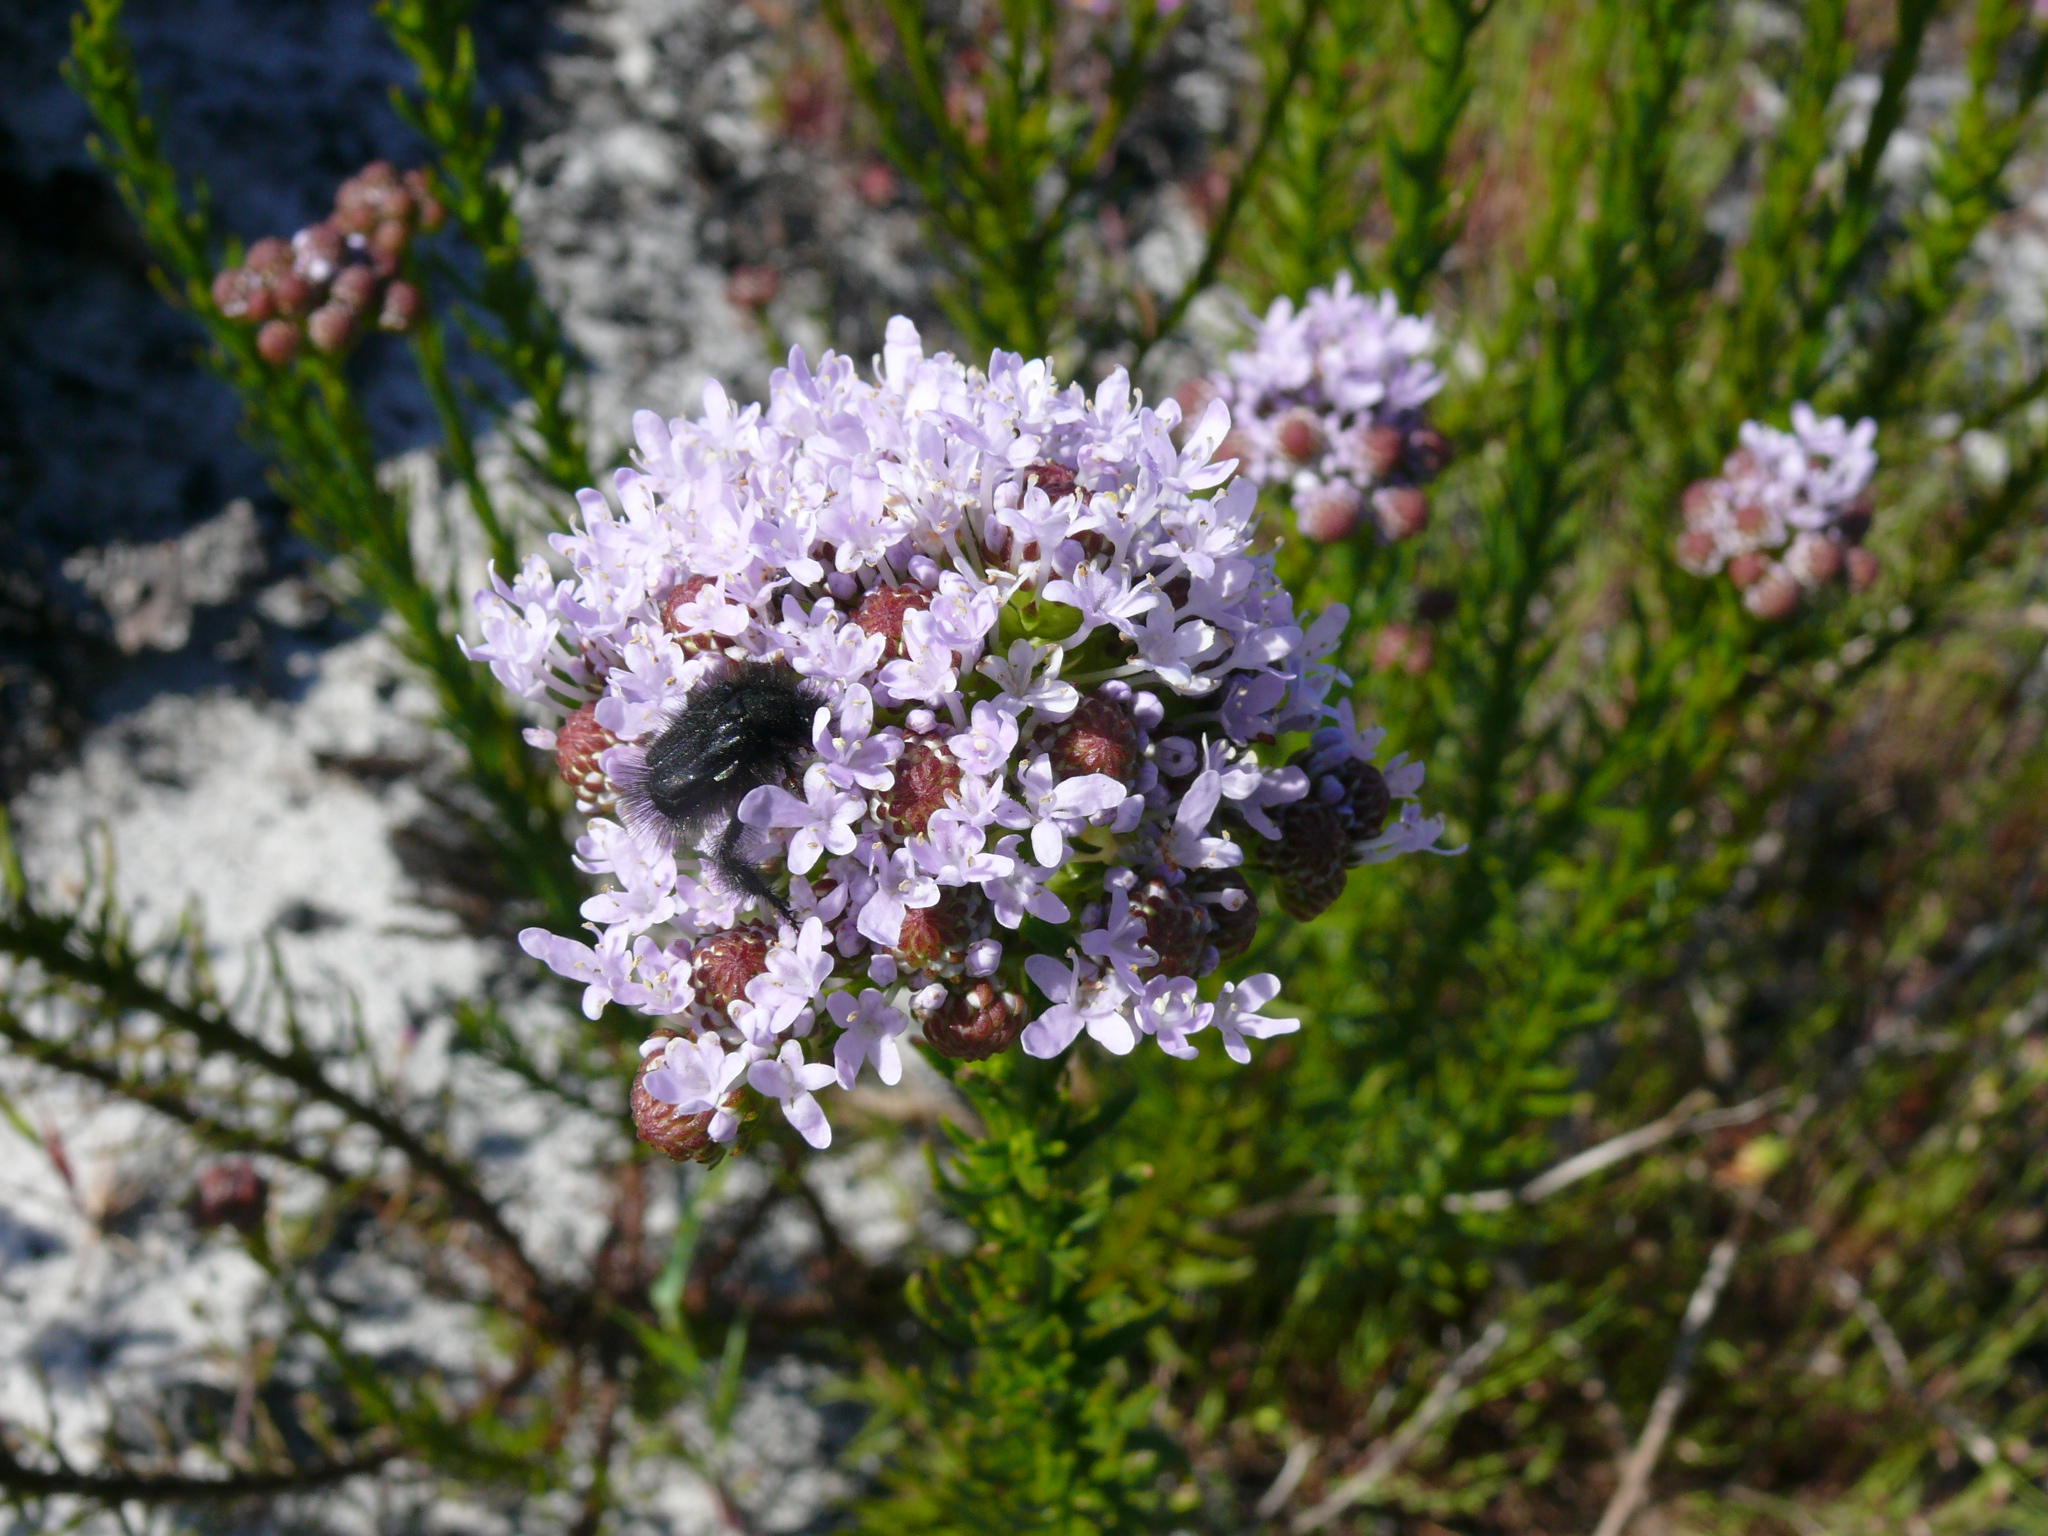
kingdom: Plantae
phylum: Tracheophyta
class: Magnoliopsida
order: Lamiales
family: Scrophulariaceae
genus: Pseudoselago
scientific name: Pseudoselago spuria
